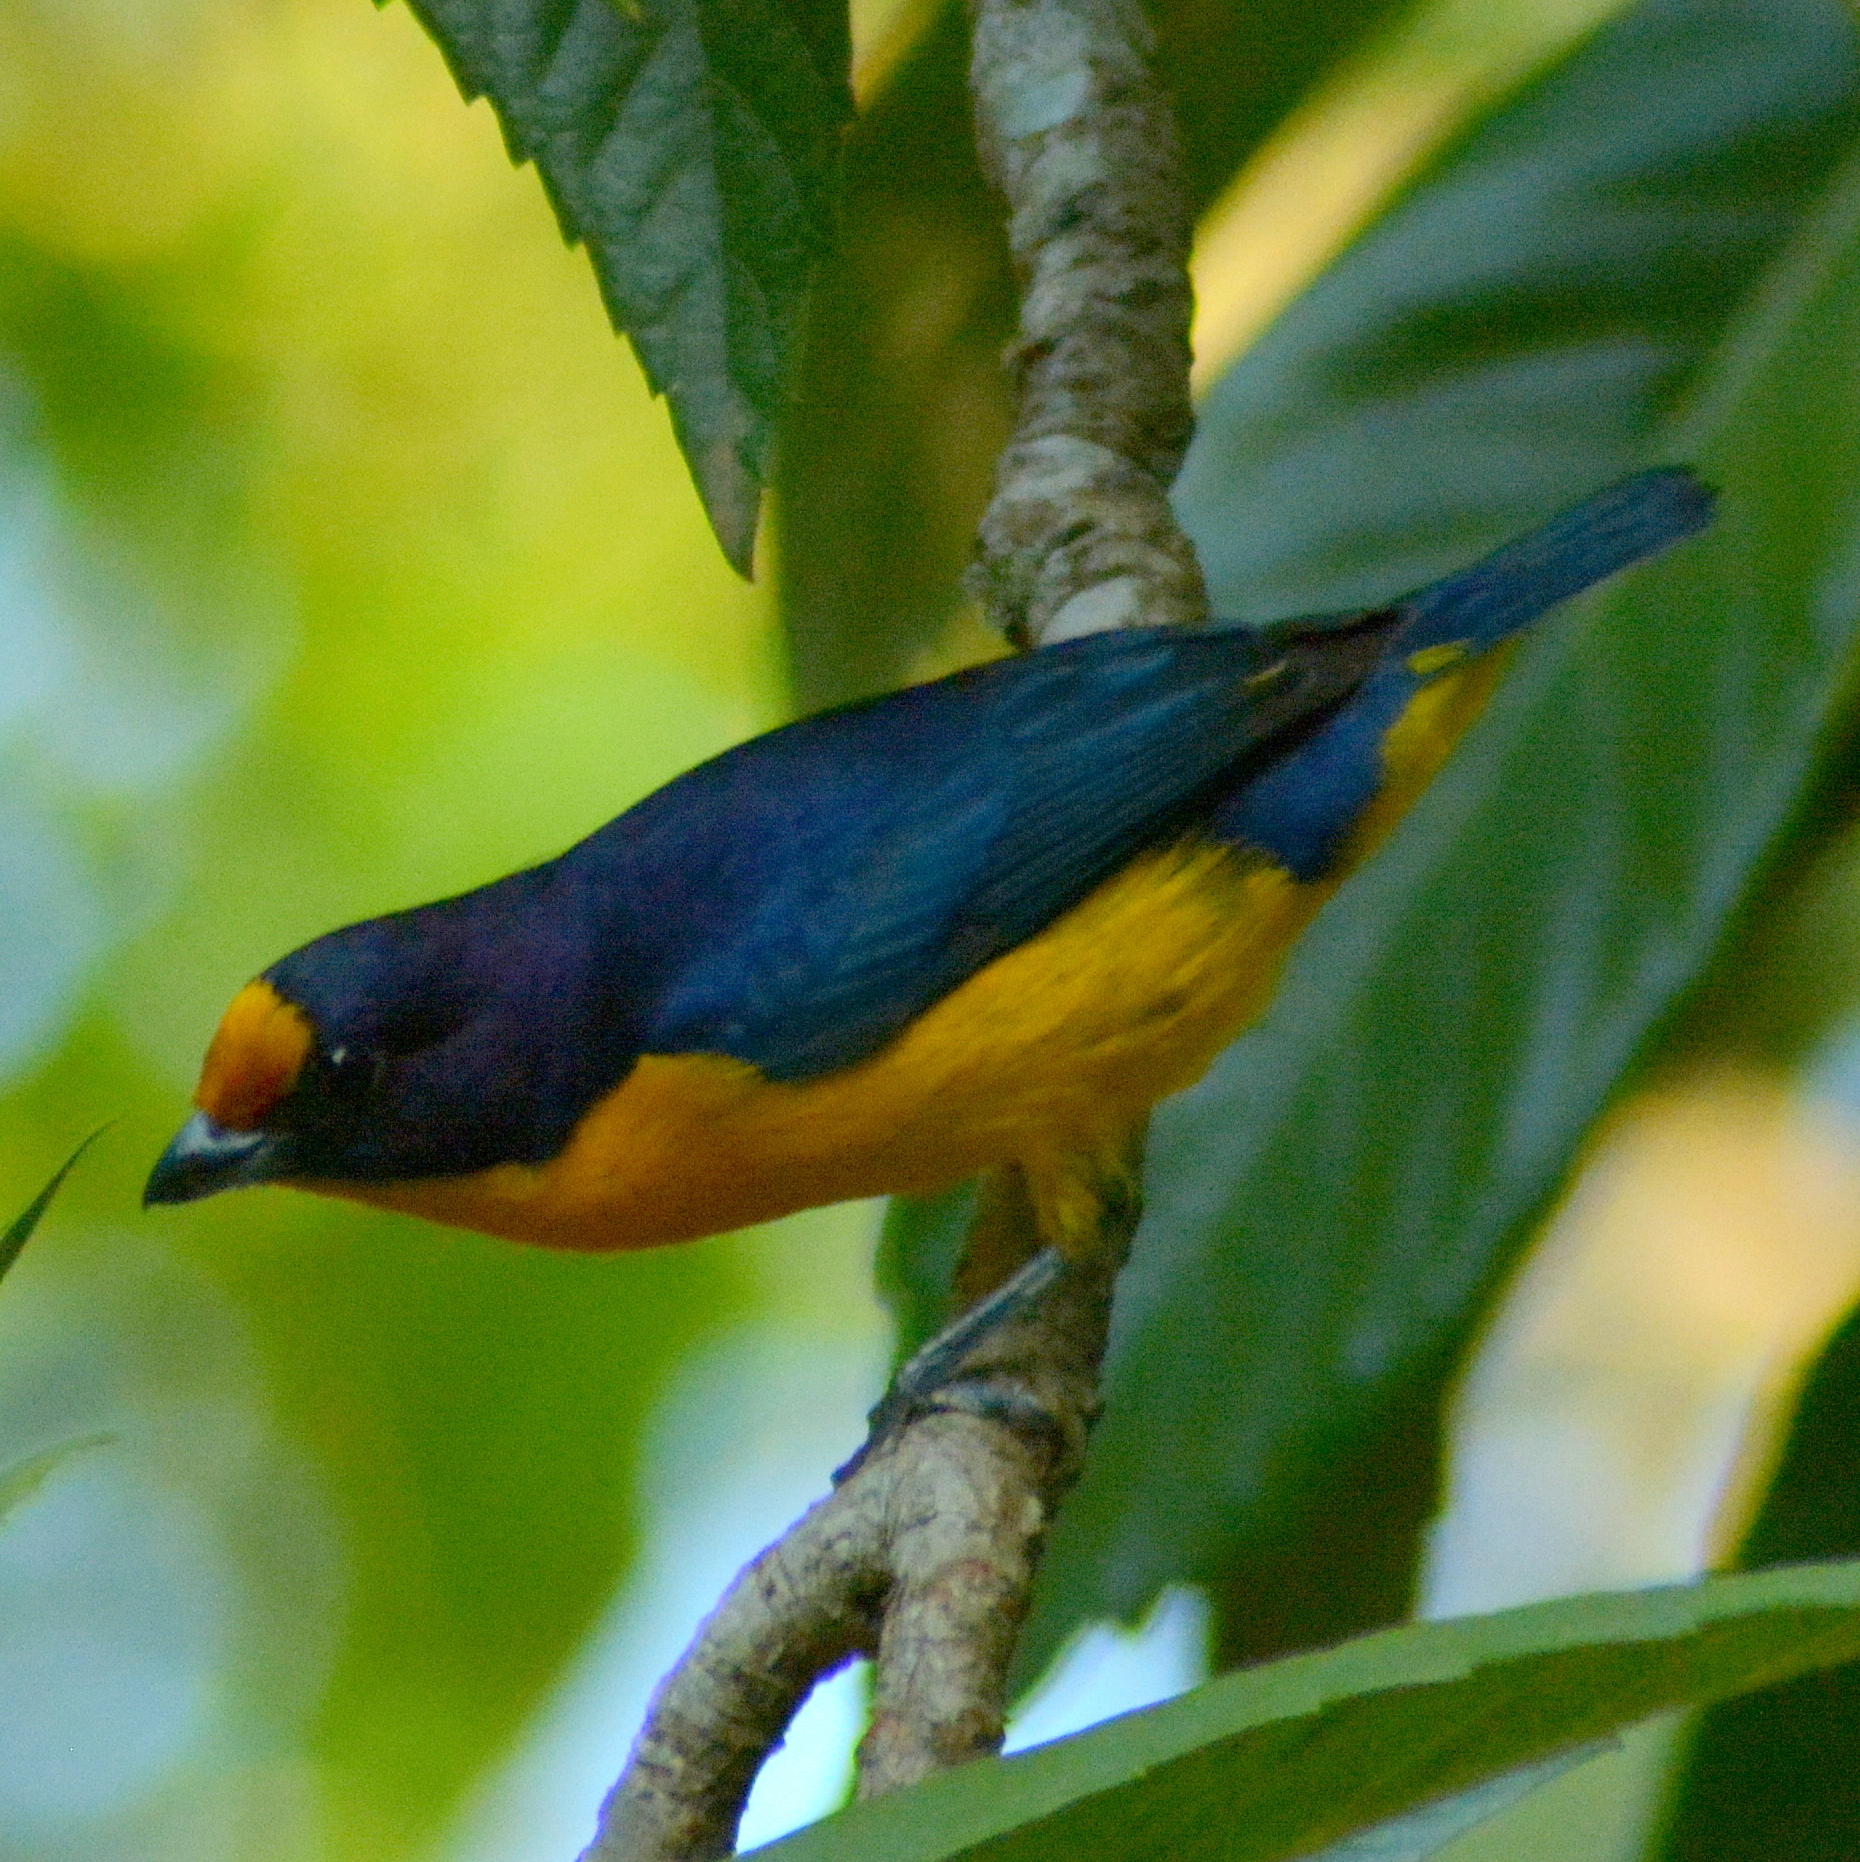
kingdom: Animalia
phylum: Chordata
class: Aves
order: Passeriformes
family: Fringillidae
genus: Euphonia
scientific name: Euphonia violacea
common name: Violaceous euphonia
